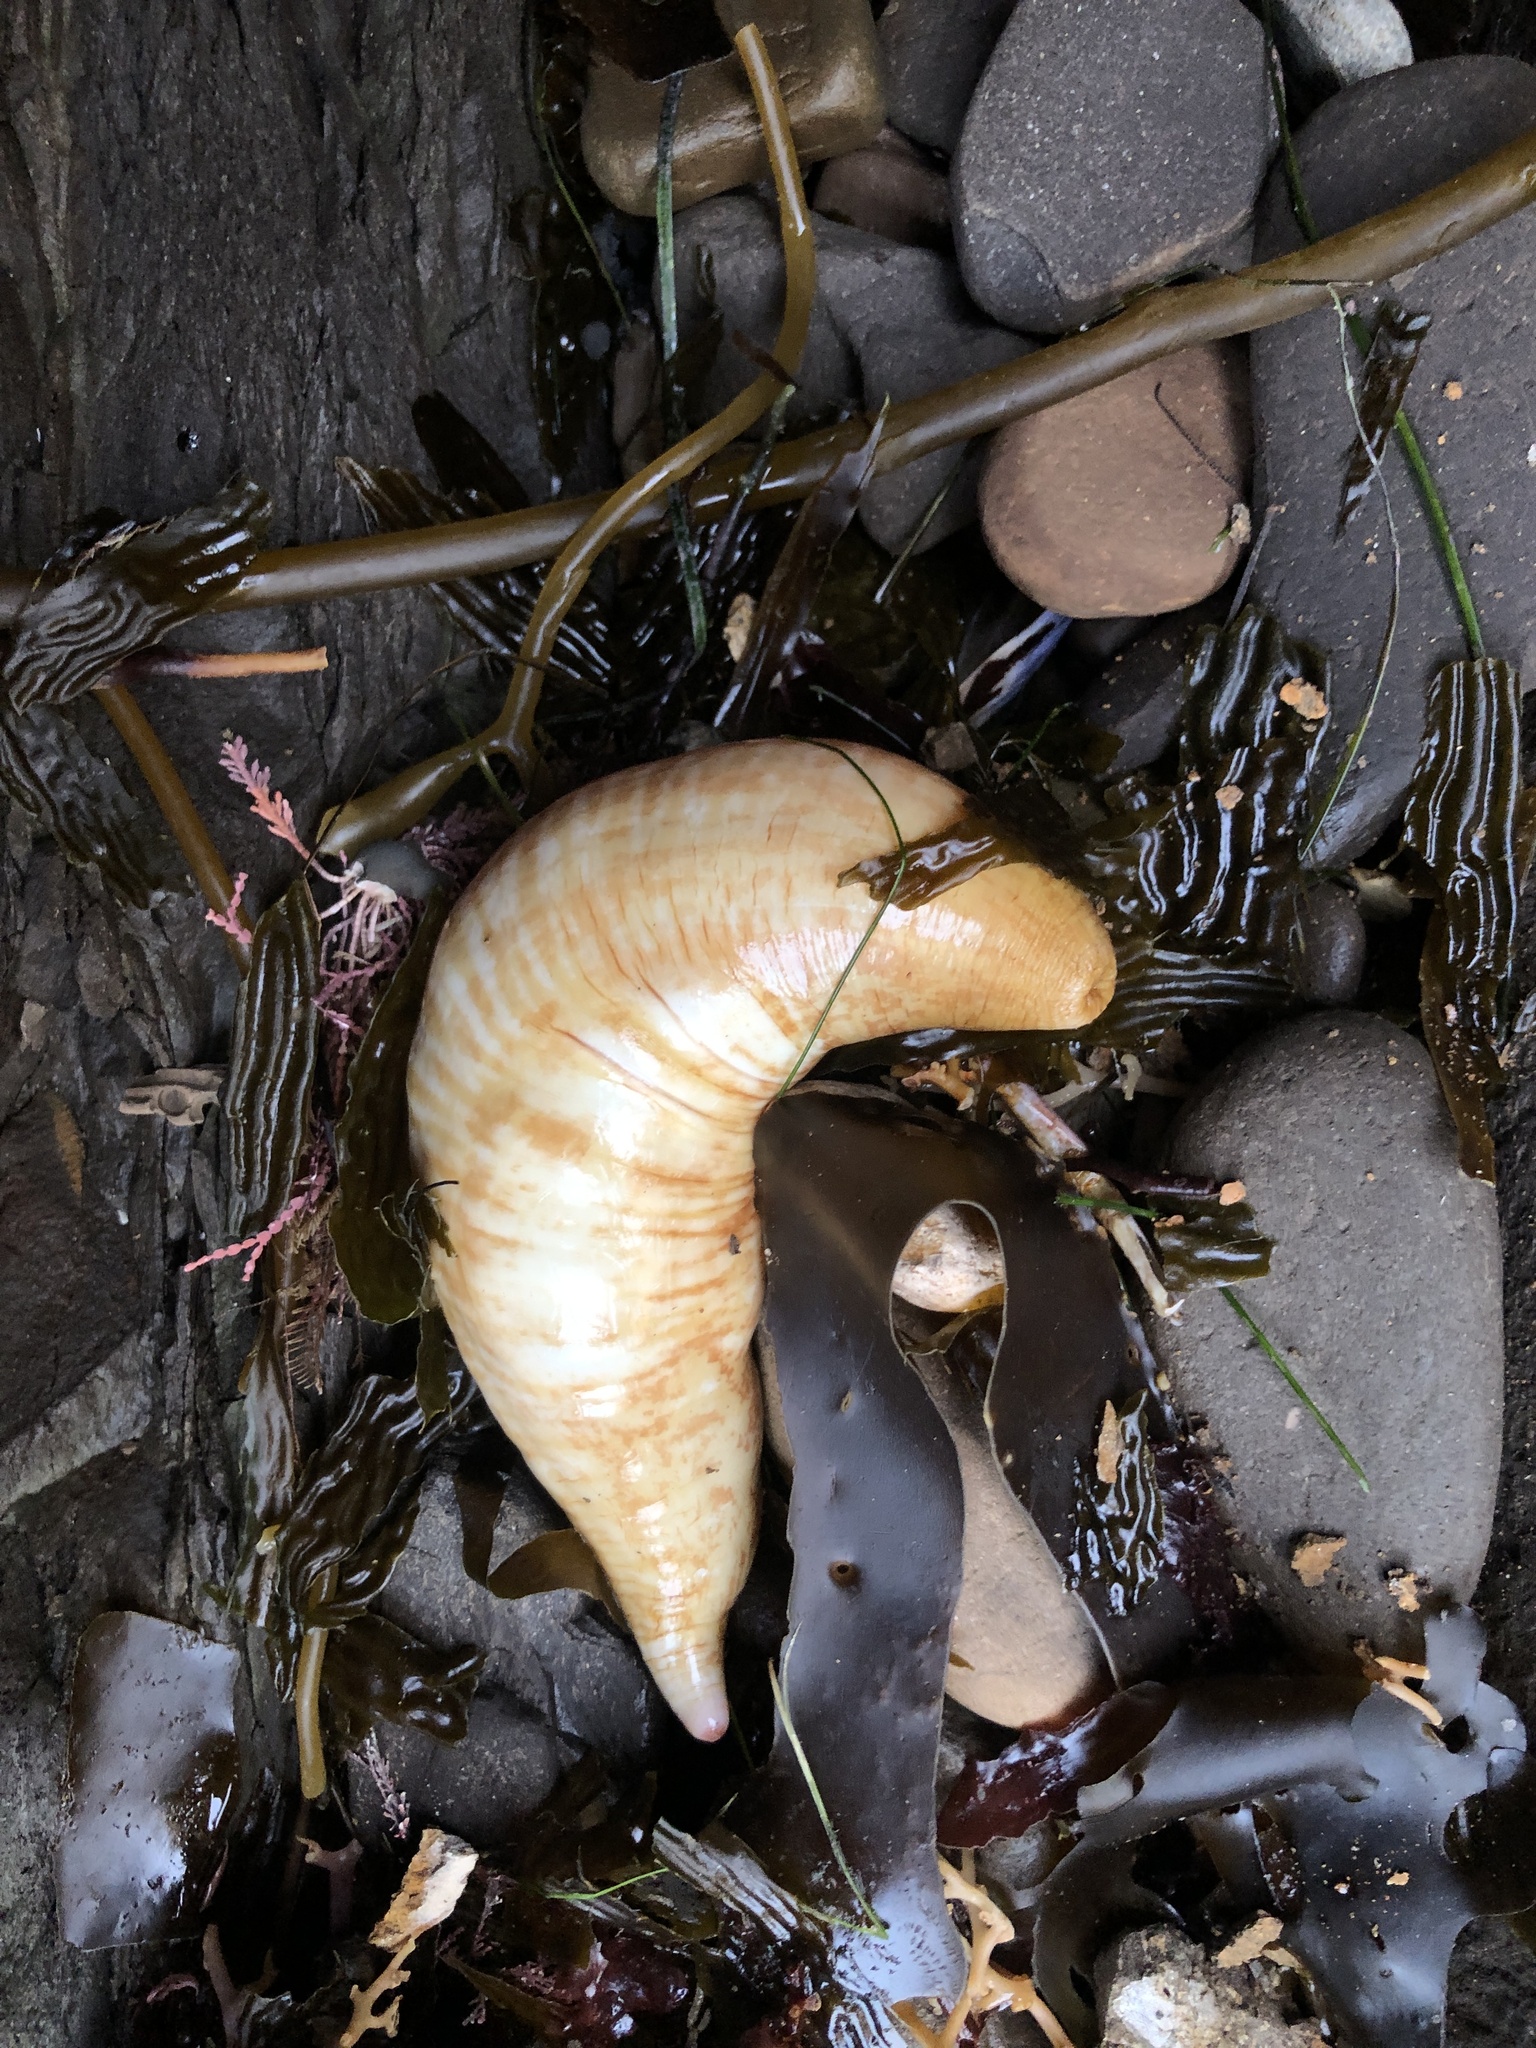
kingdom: Animalia
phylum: Echinodermata
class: Holothuroidea
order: Molpadida
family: Caudinidae
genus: Caudina
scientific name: Caudina arenicola
